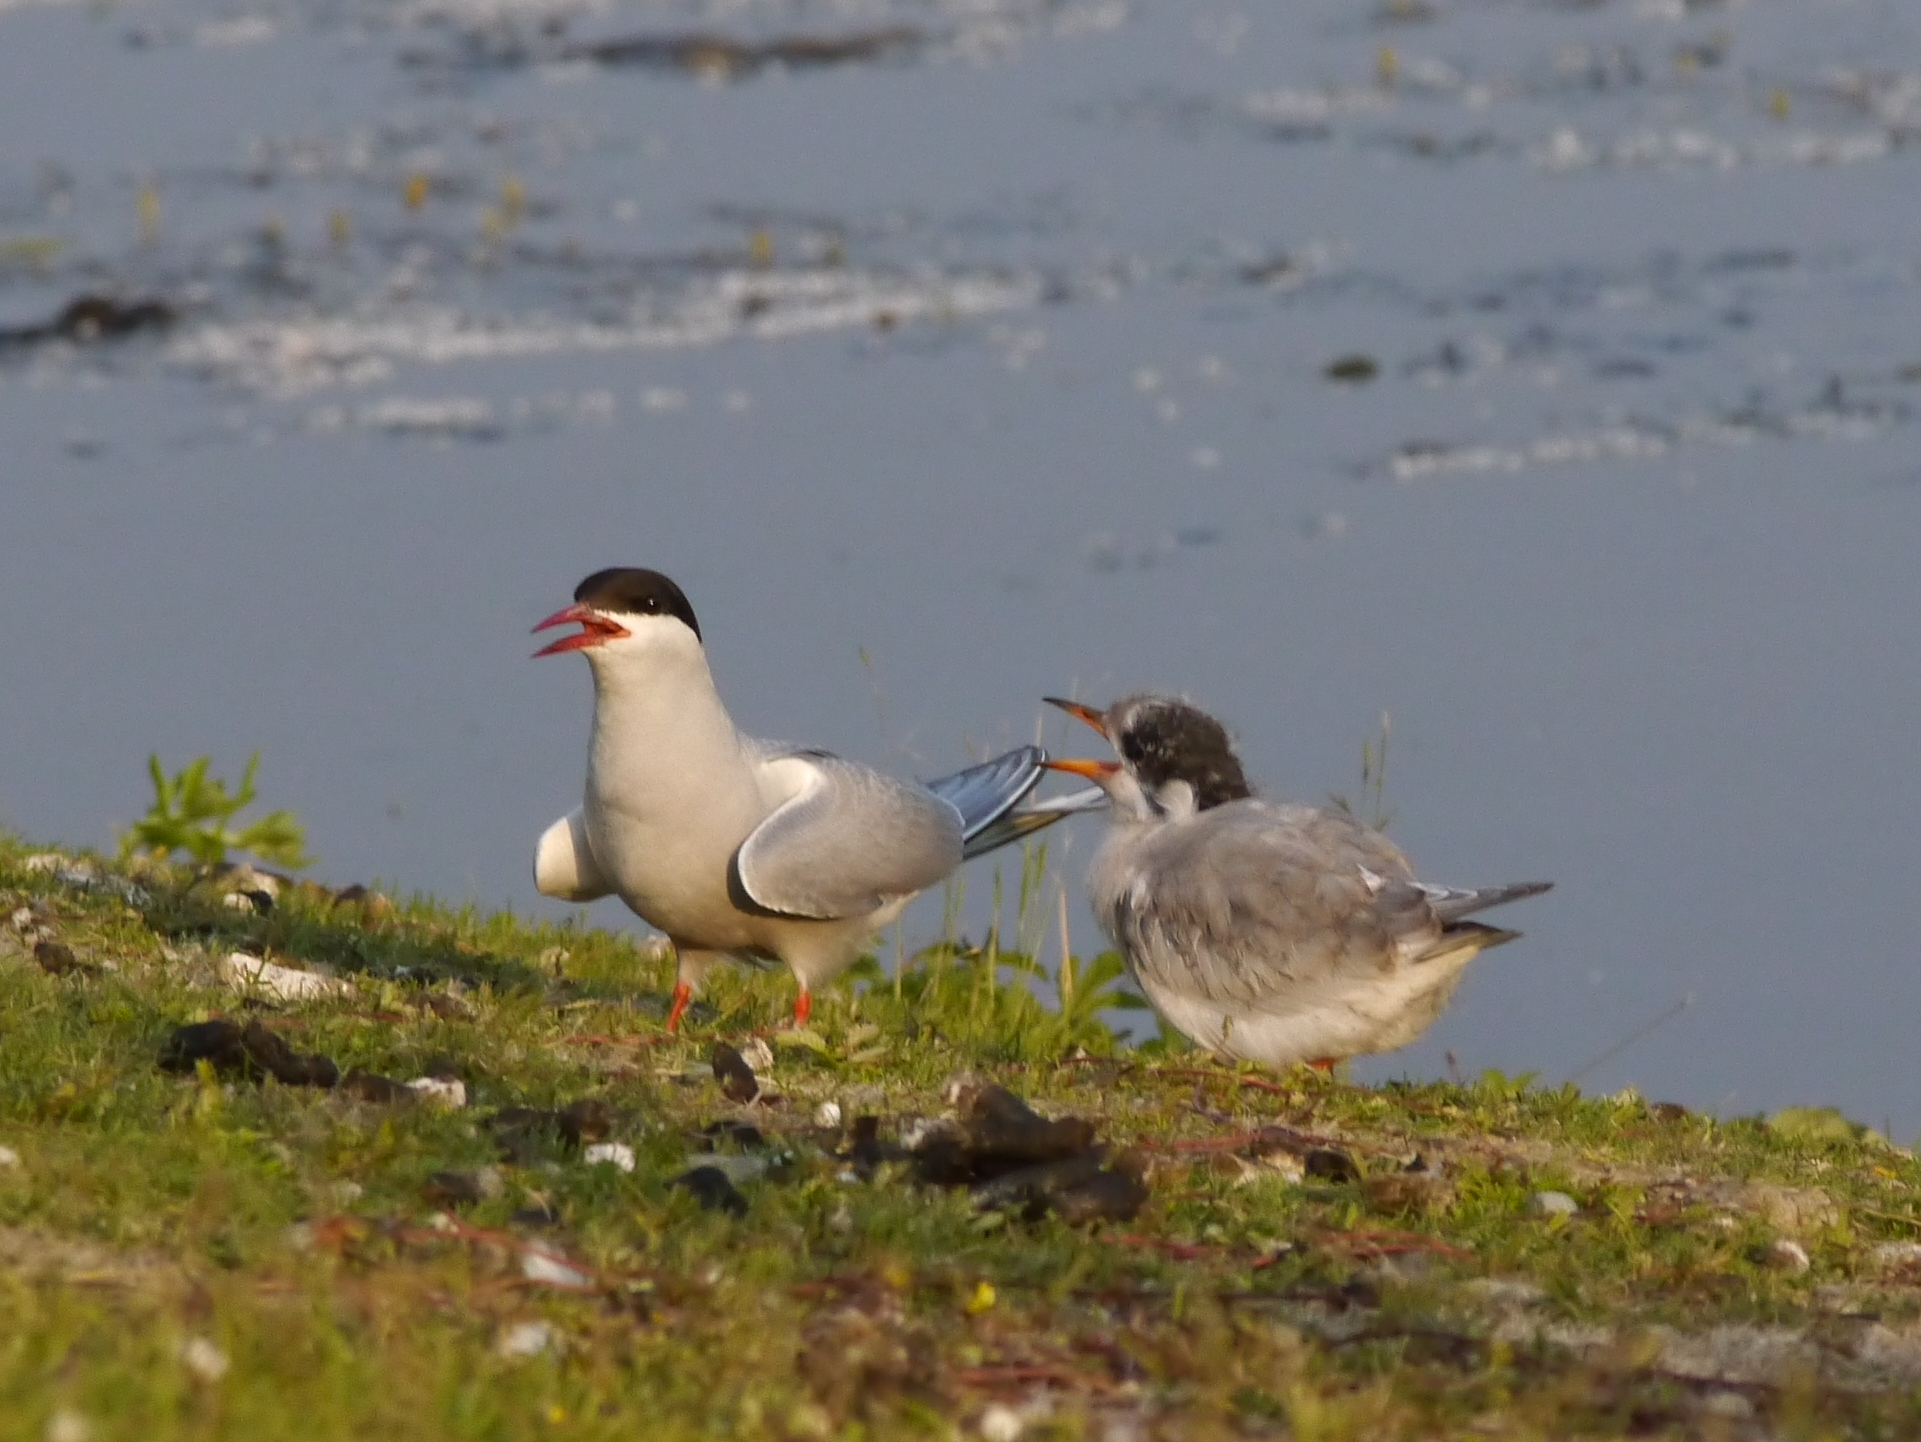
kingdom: Animalia
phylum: Chordata
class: Aves
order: Charadriiformes
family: Laridae
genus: Sterna
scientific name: Sterna paradisaea
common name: Arctic tern
